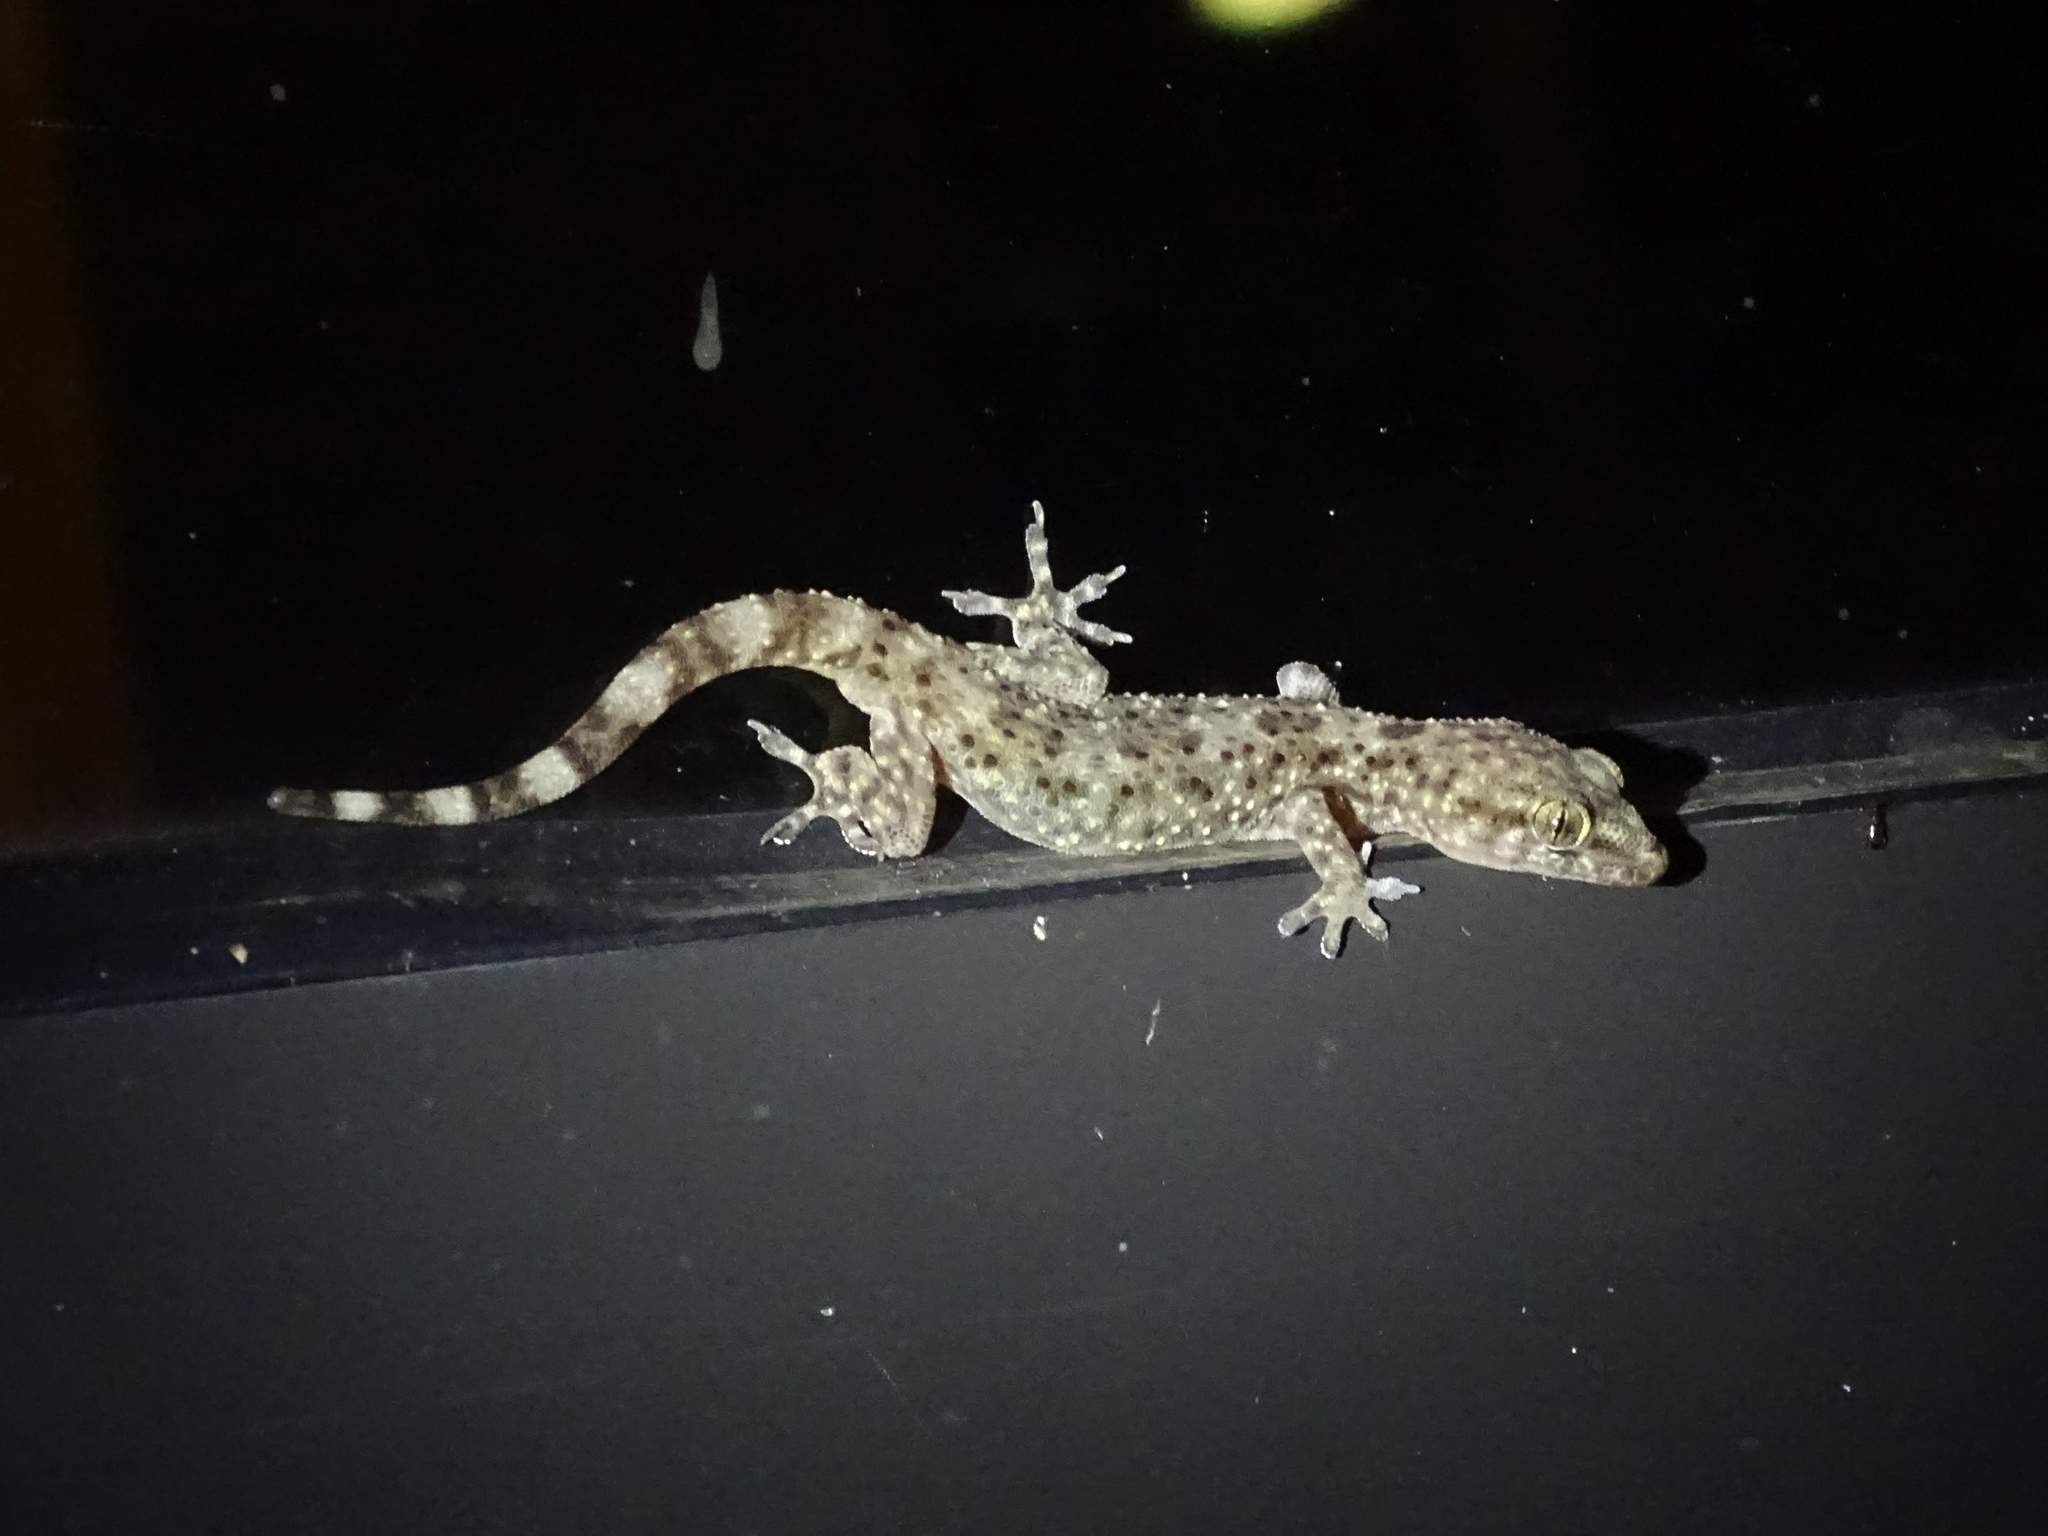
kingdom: Animalia
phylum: Chordata
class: Squamata
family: Gekkonidae
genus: Hemidactylus
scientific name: Hemidactylus turcicus
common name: Turkish gecko
